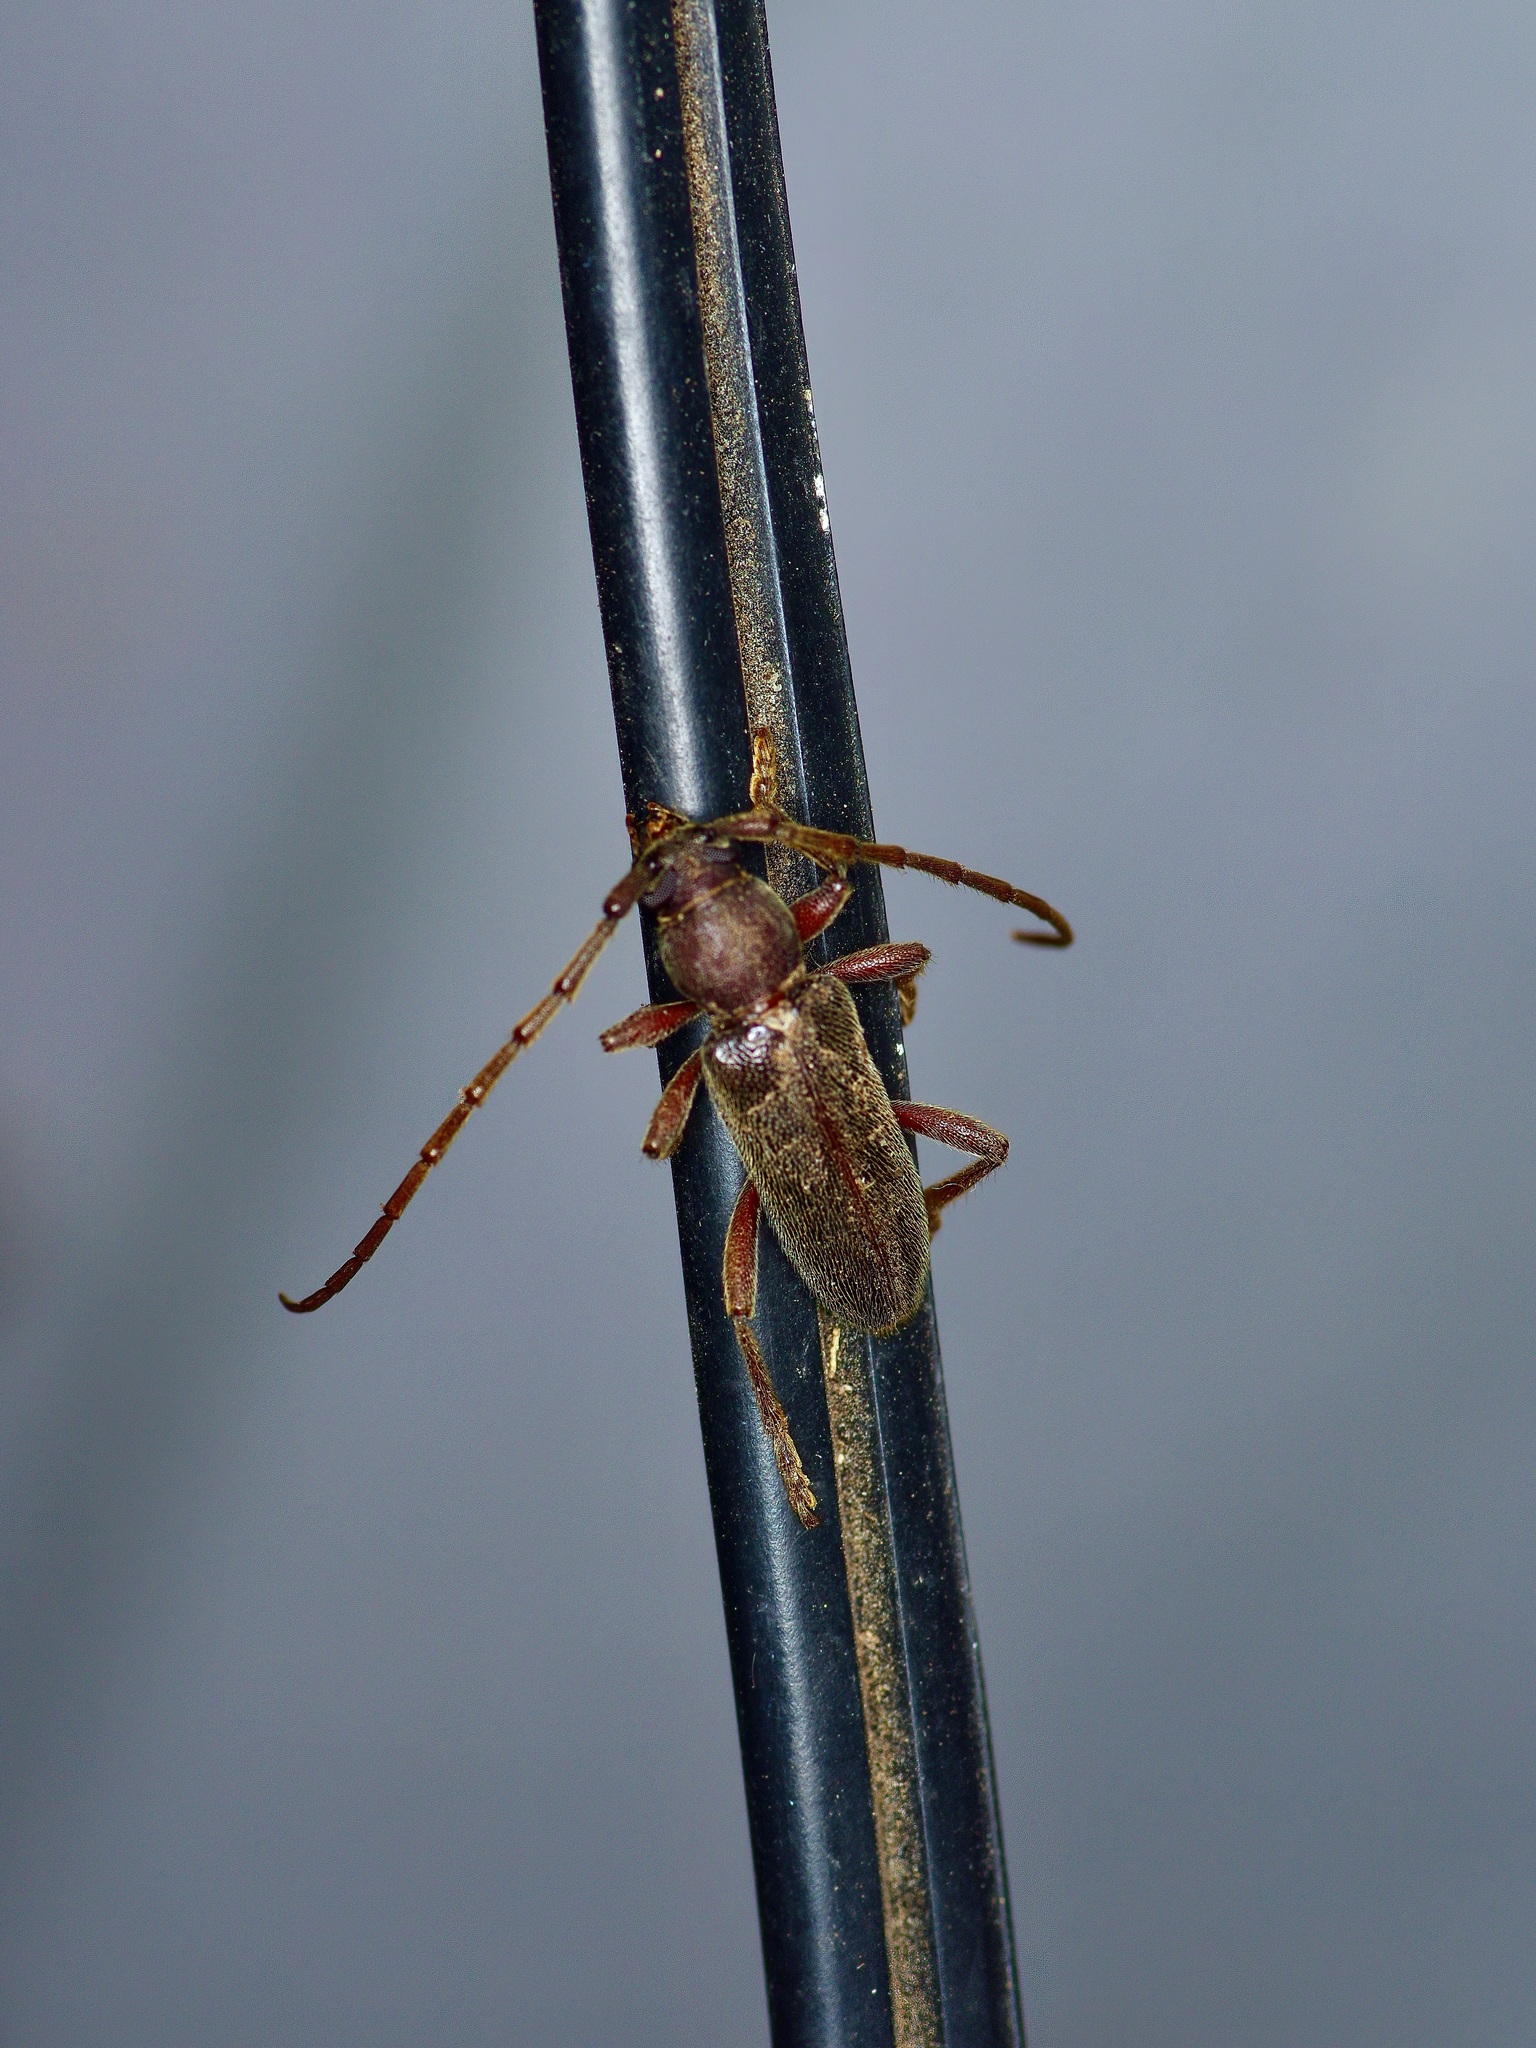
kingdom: Animalia
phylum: Arthropoda
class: Insecta
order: Coleoptera
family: Cerambycidae
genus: Anelaphus
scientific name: Anelaphus moestus
